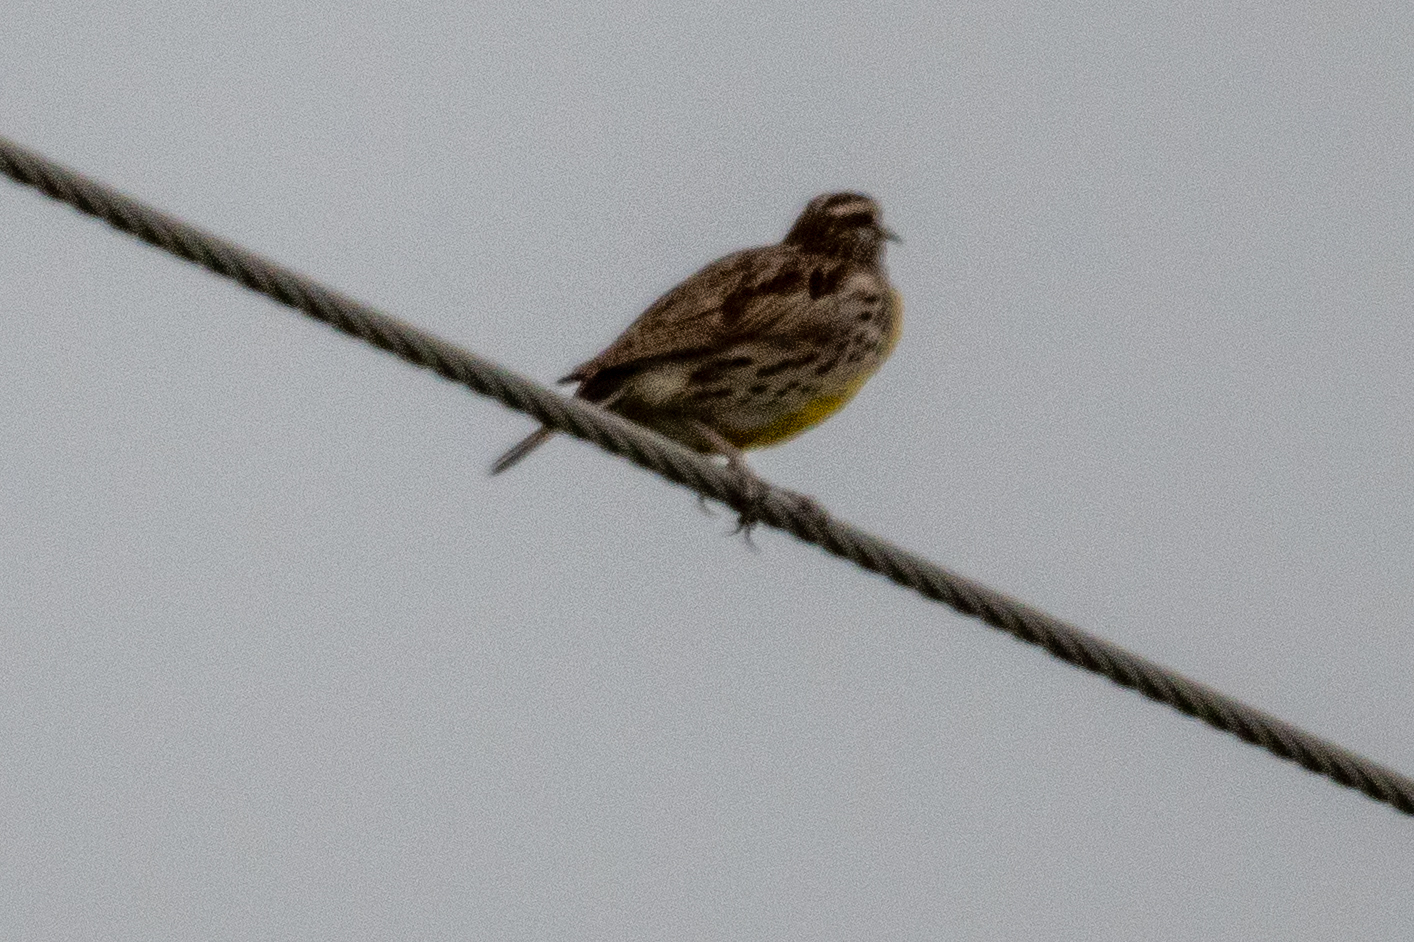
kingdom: Animalia
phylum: Chordata
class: Aves
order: Passeriformes
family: Icteridae
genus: Sturnella
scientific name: Sturnella neglecta
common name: Western meadowlark
